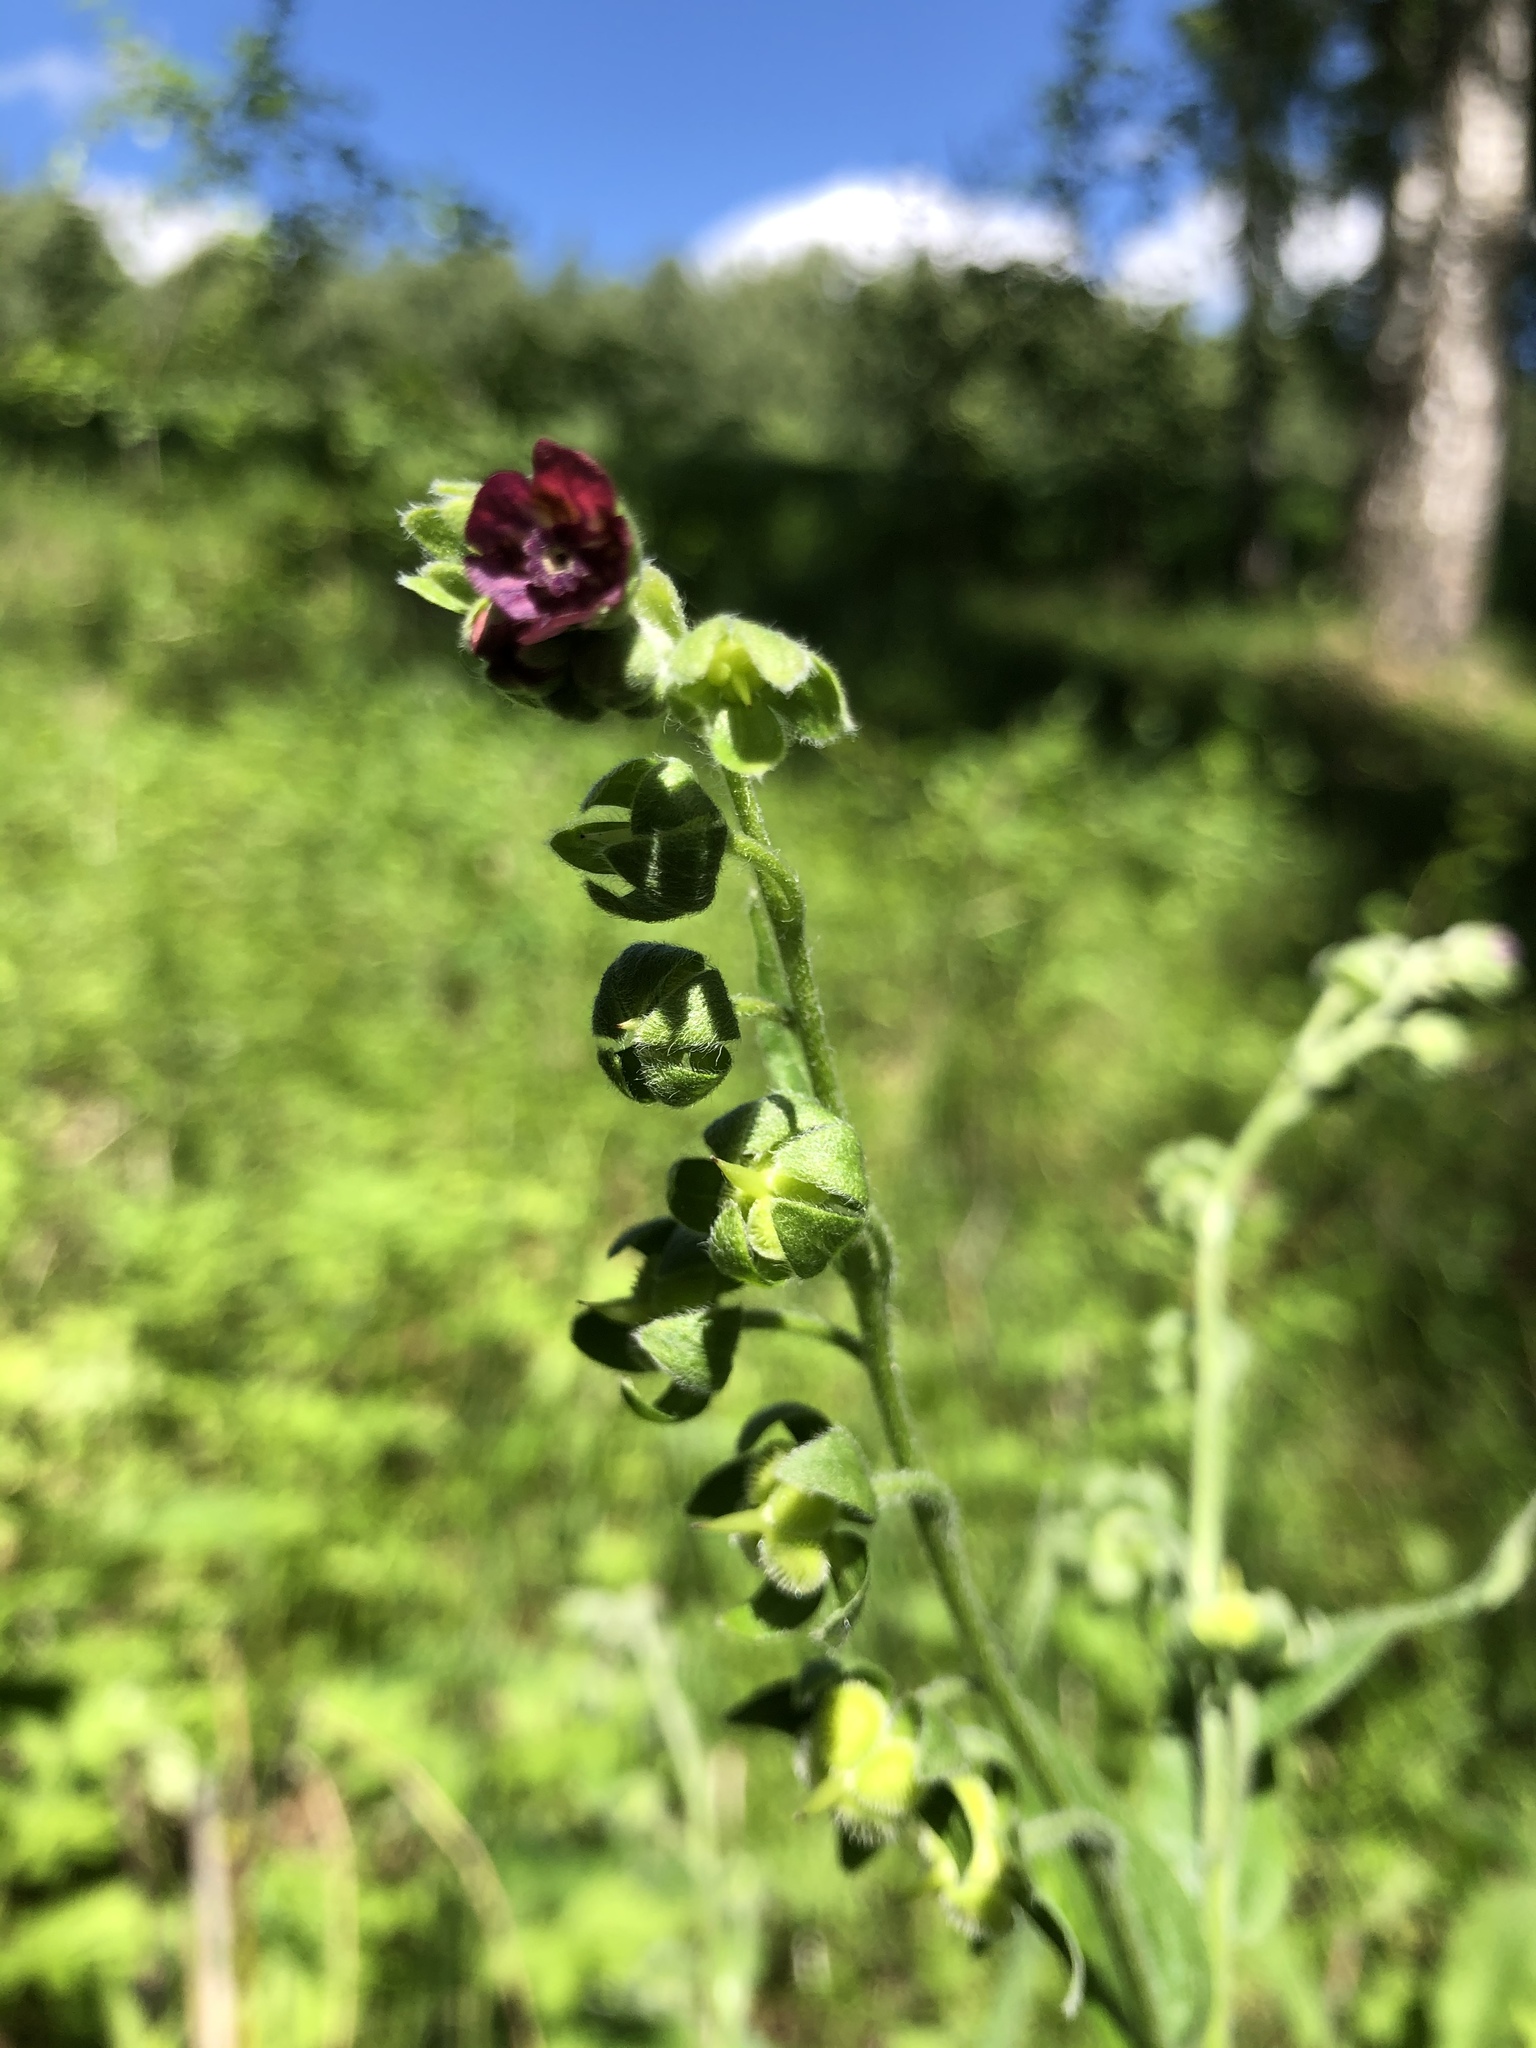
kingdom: Plantae
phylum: Tracheophyta
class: Magnoliopsida
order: Boraginales
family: Boraginaceae
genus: Cynoglossum
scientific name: Cynoglossum officinale
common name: Hound's-tongue
